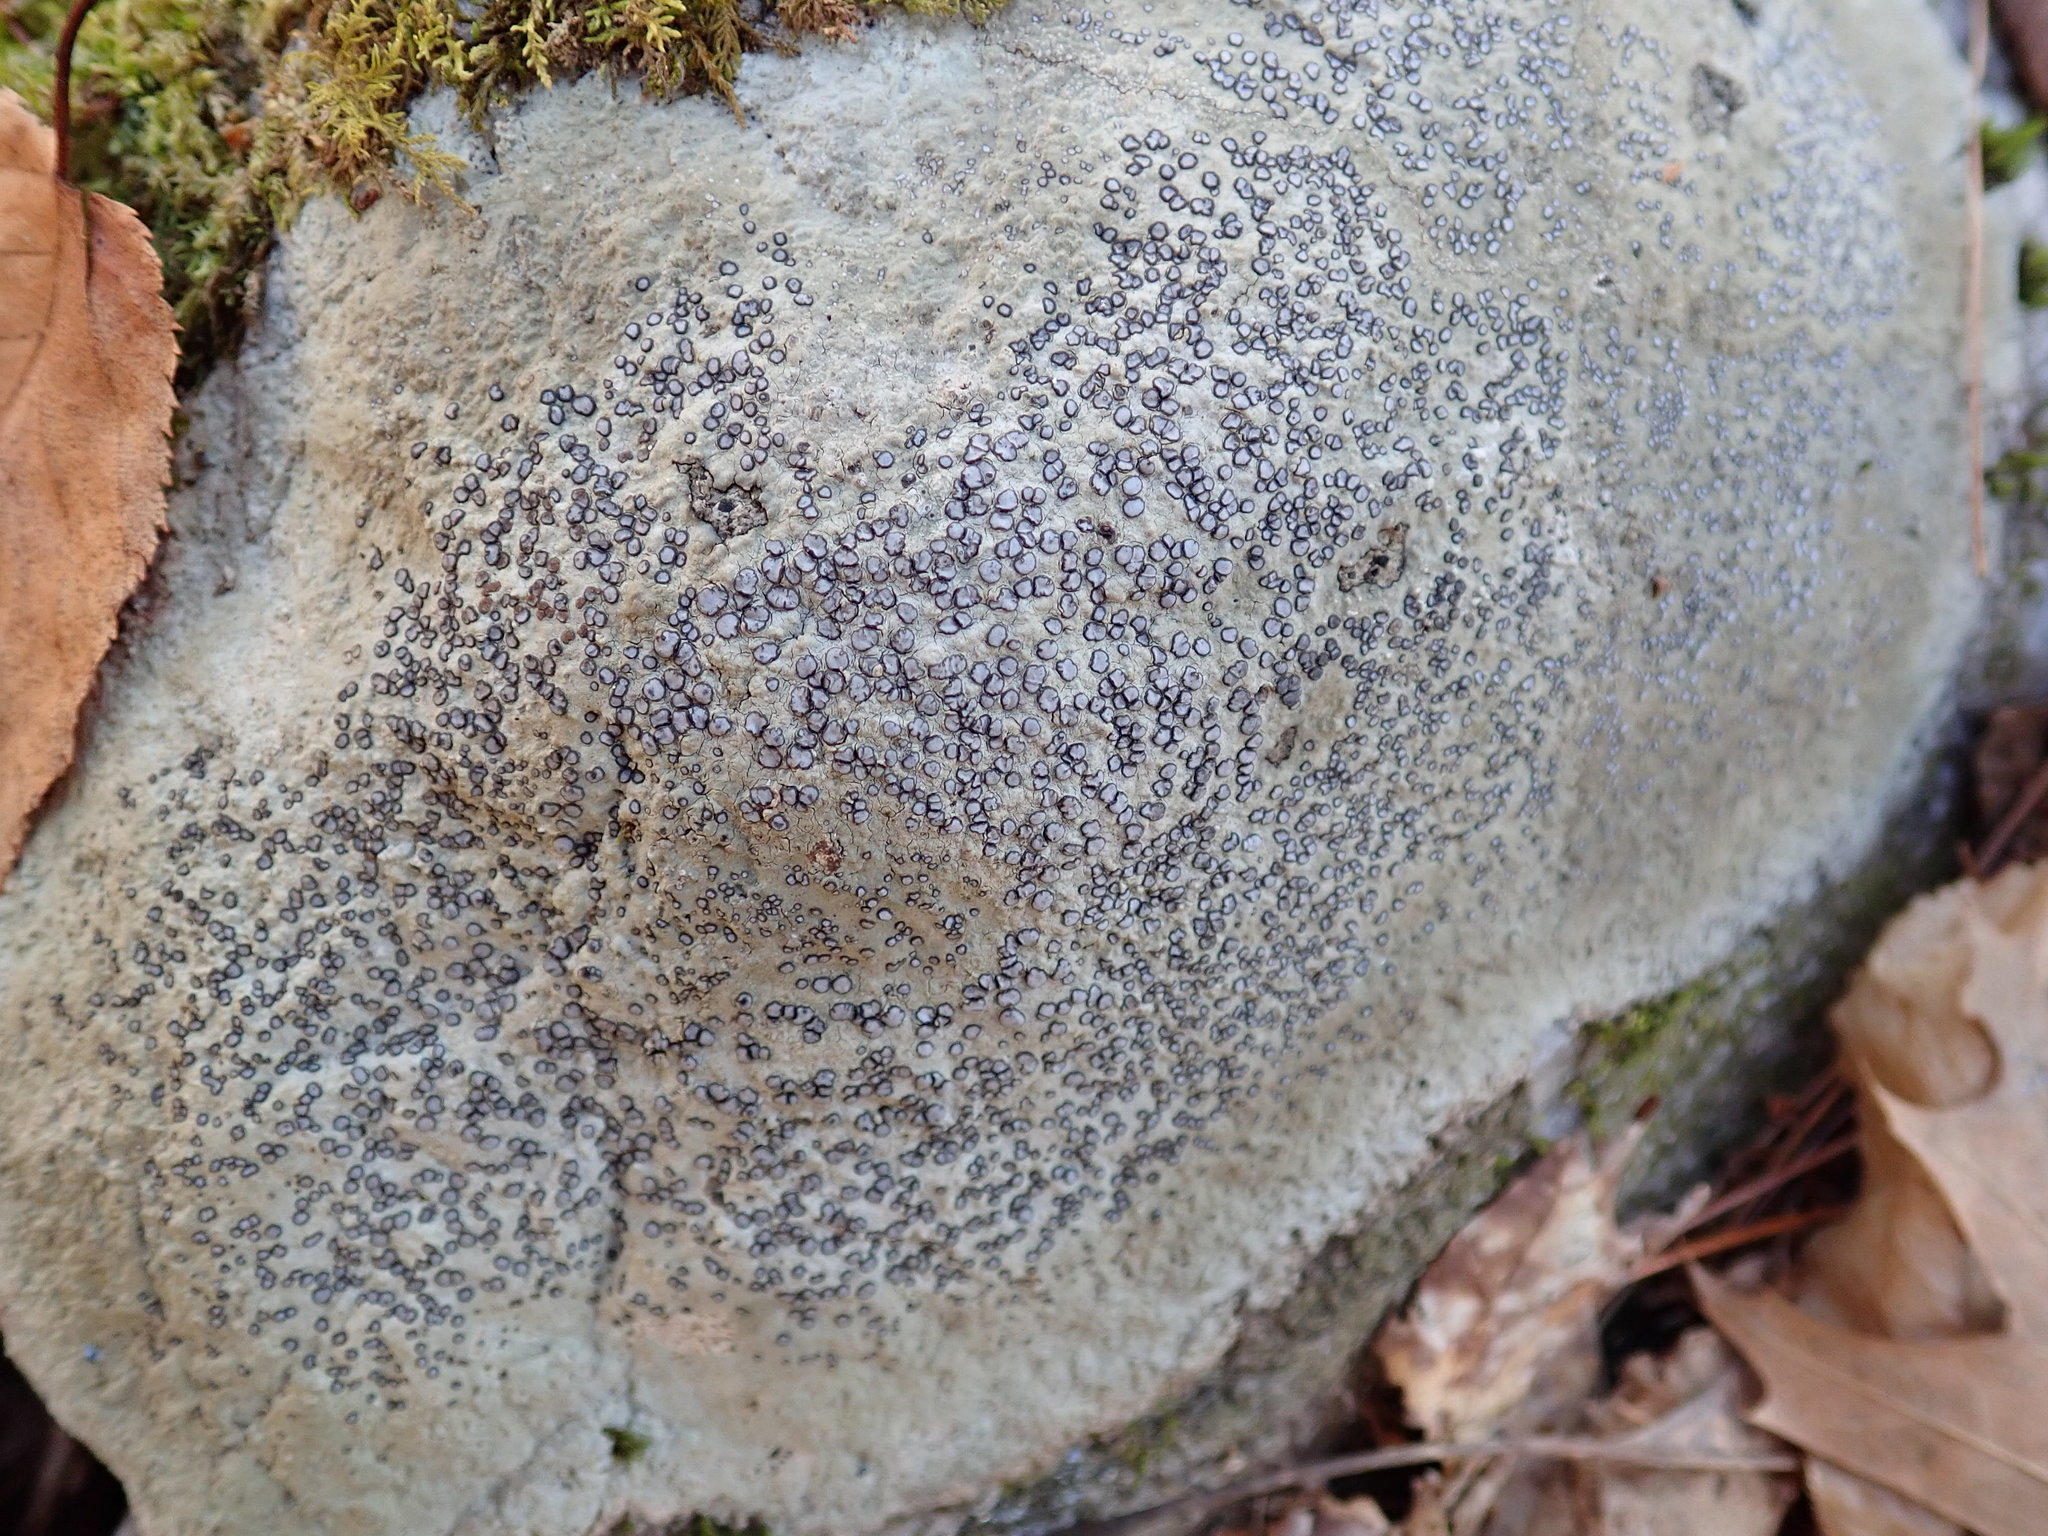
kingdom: Fungi
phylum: Ascomycota
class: Lecanoromycetes
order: Lecideales
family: Lecideaceae
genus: Porpidia
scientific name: Porpidia albocaerulescens
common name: Smokey-eyed boulder lichen
